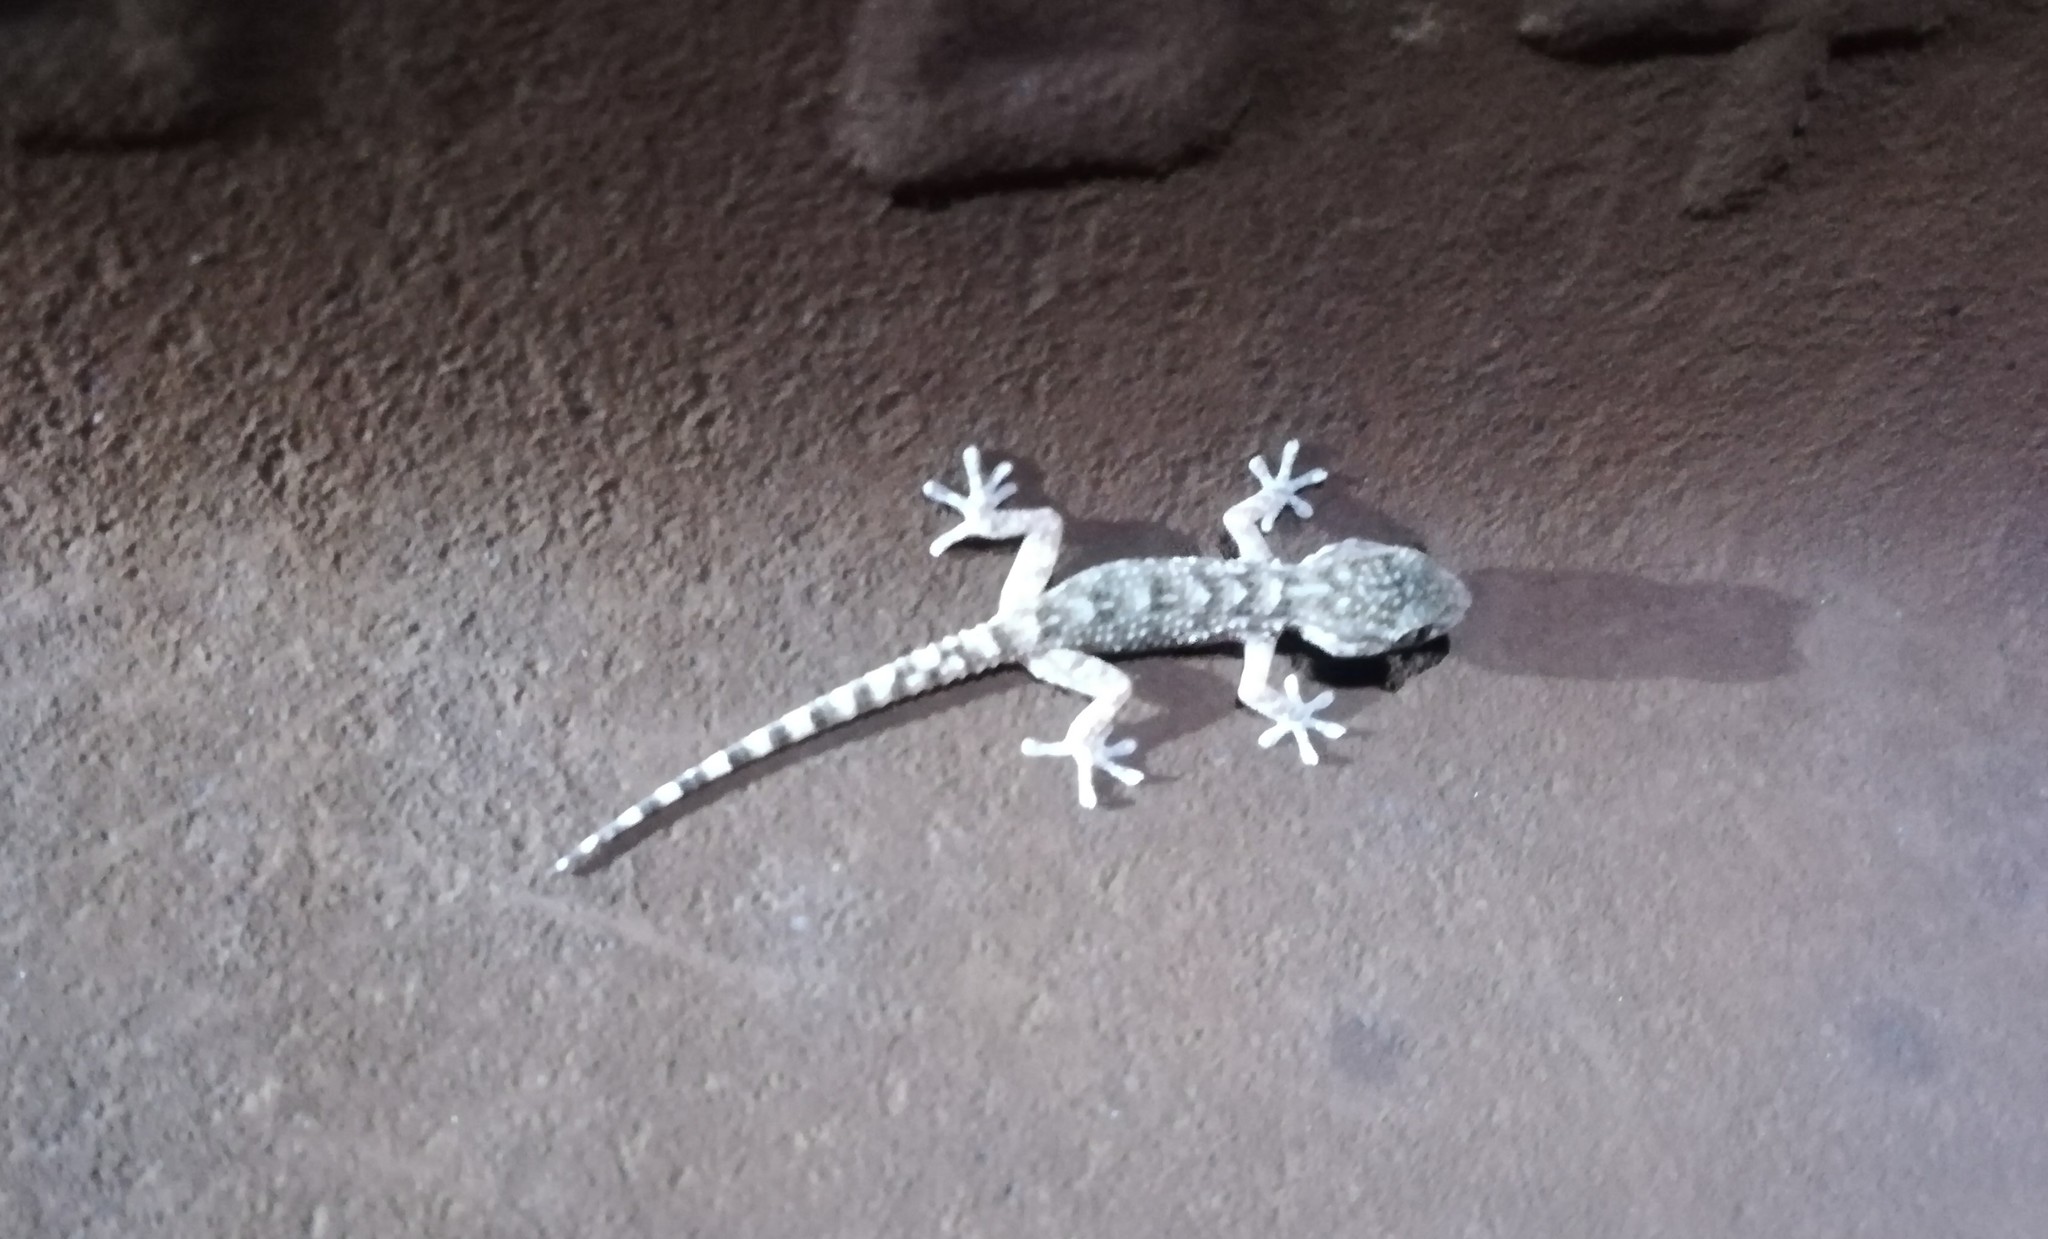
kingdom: Animalia
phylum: Chordata
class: Squamata
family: Phyllodactylidae
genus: Tarentola
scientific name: Tarentola mauritanica
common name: Moorish gecko
